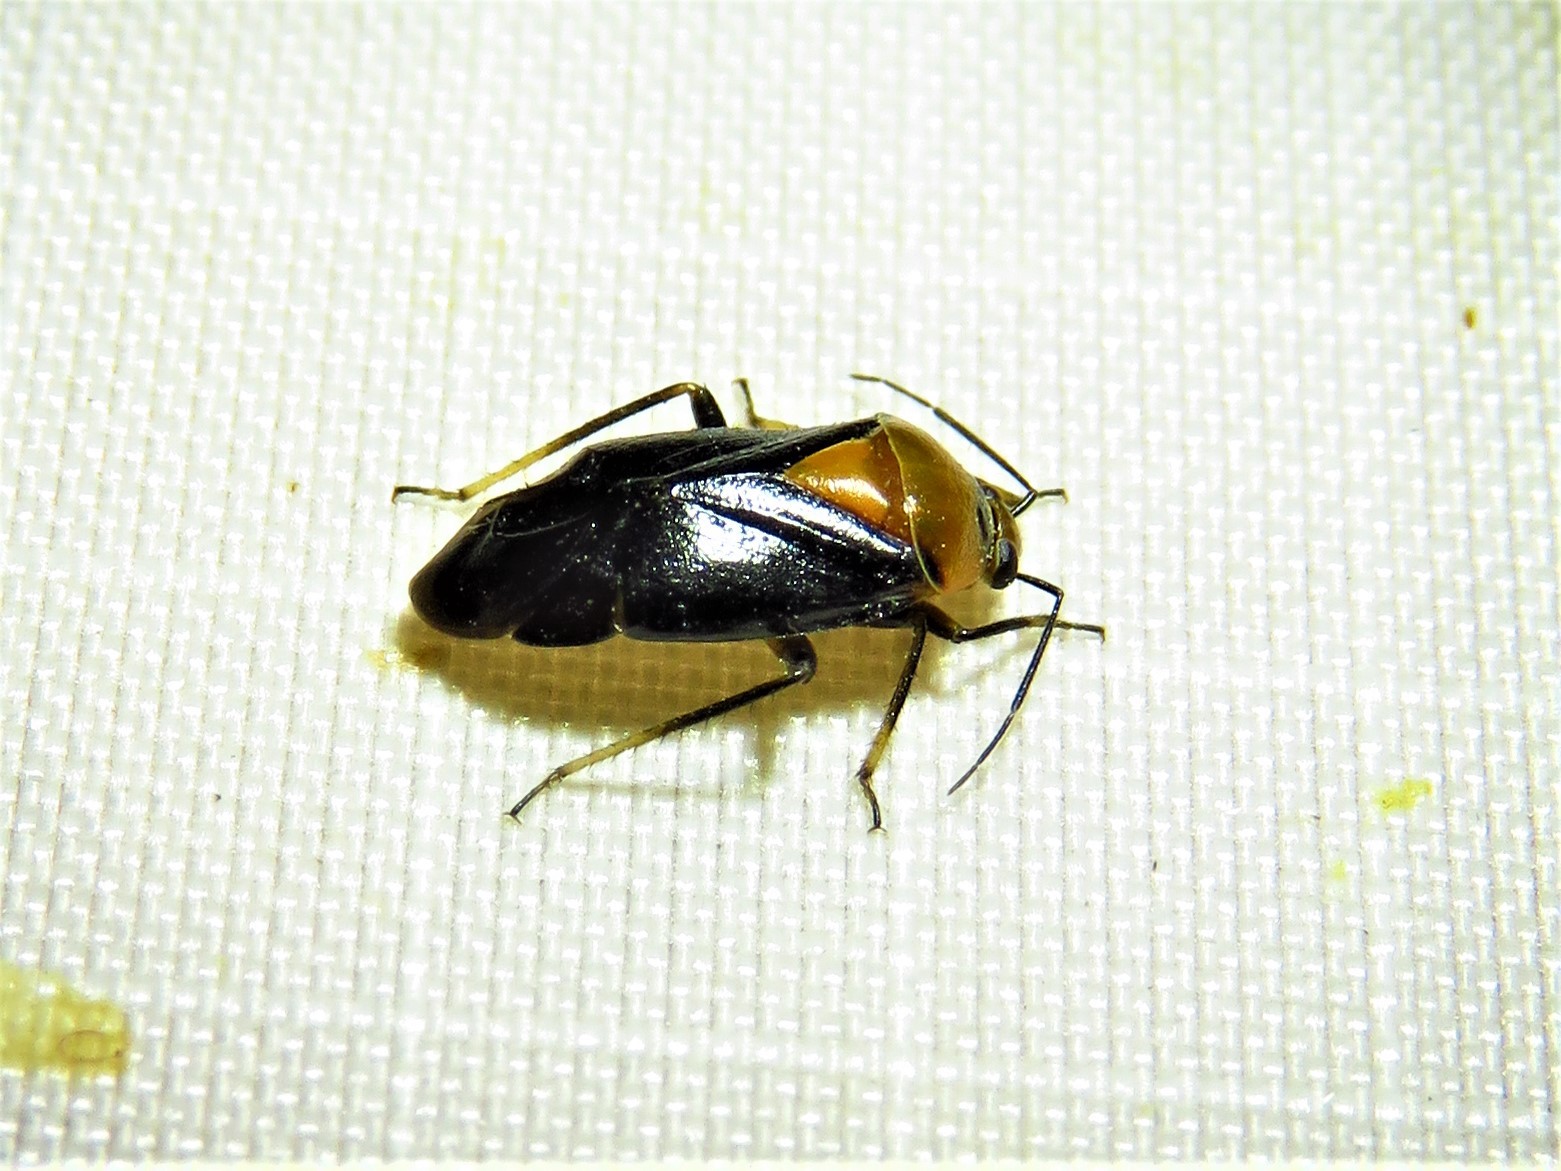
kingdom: Animalia
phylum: Arthropoda
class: Insecta
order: Hemiptera
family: Miridae
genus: Neocapsus
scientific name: Neocapsus cuneatus
